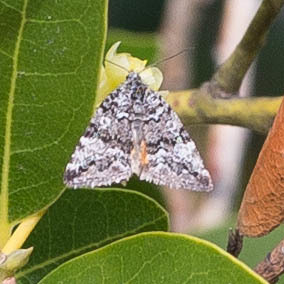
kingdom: Animalia
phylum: Arthropoda
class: Insecta
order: Lepidoptera
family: Noctuidae
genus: Annaphila
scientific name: Annaphila abdita
